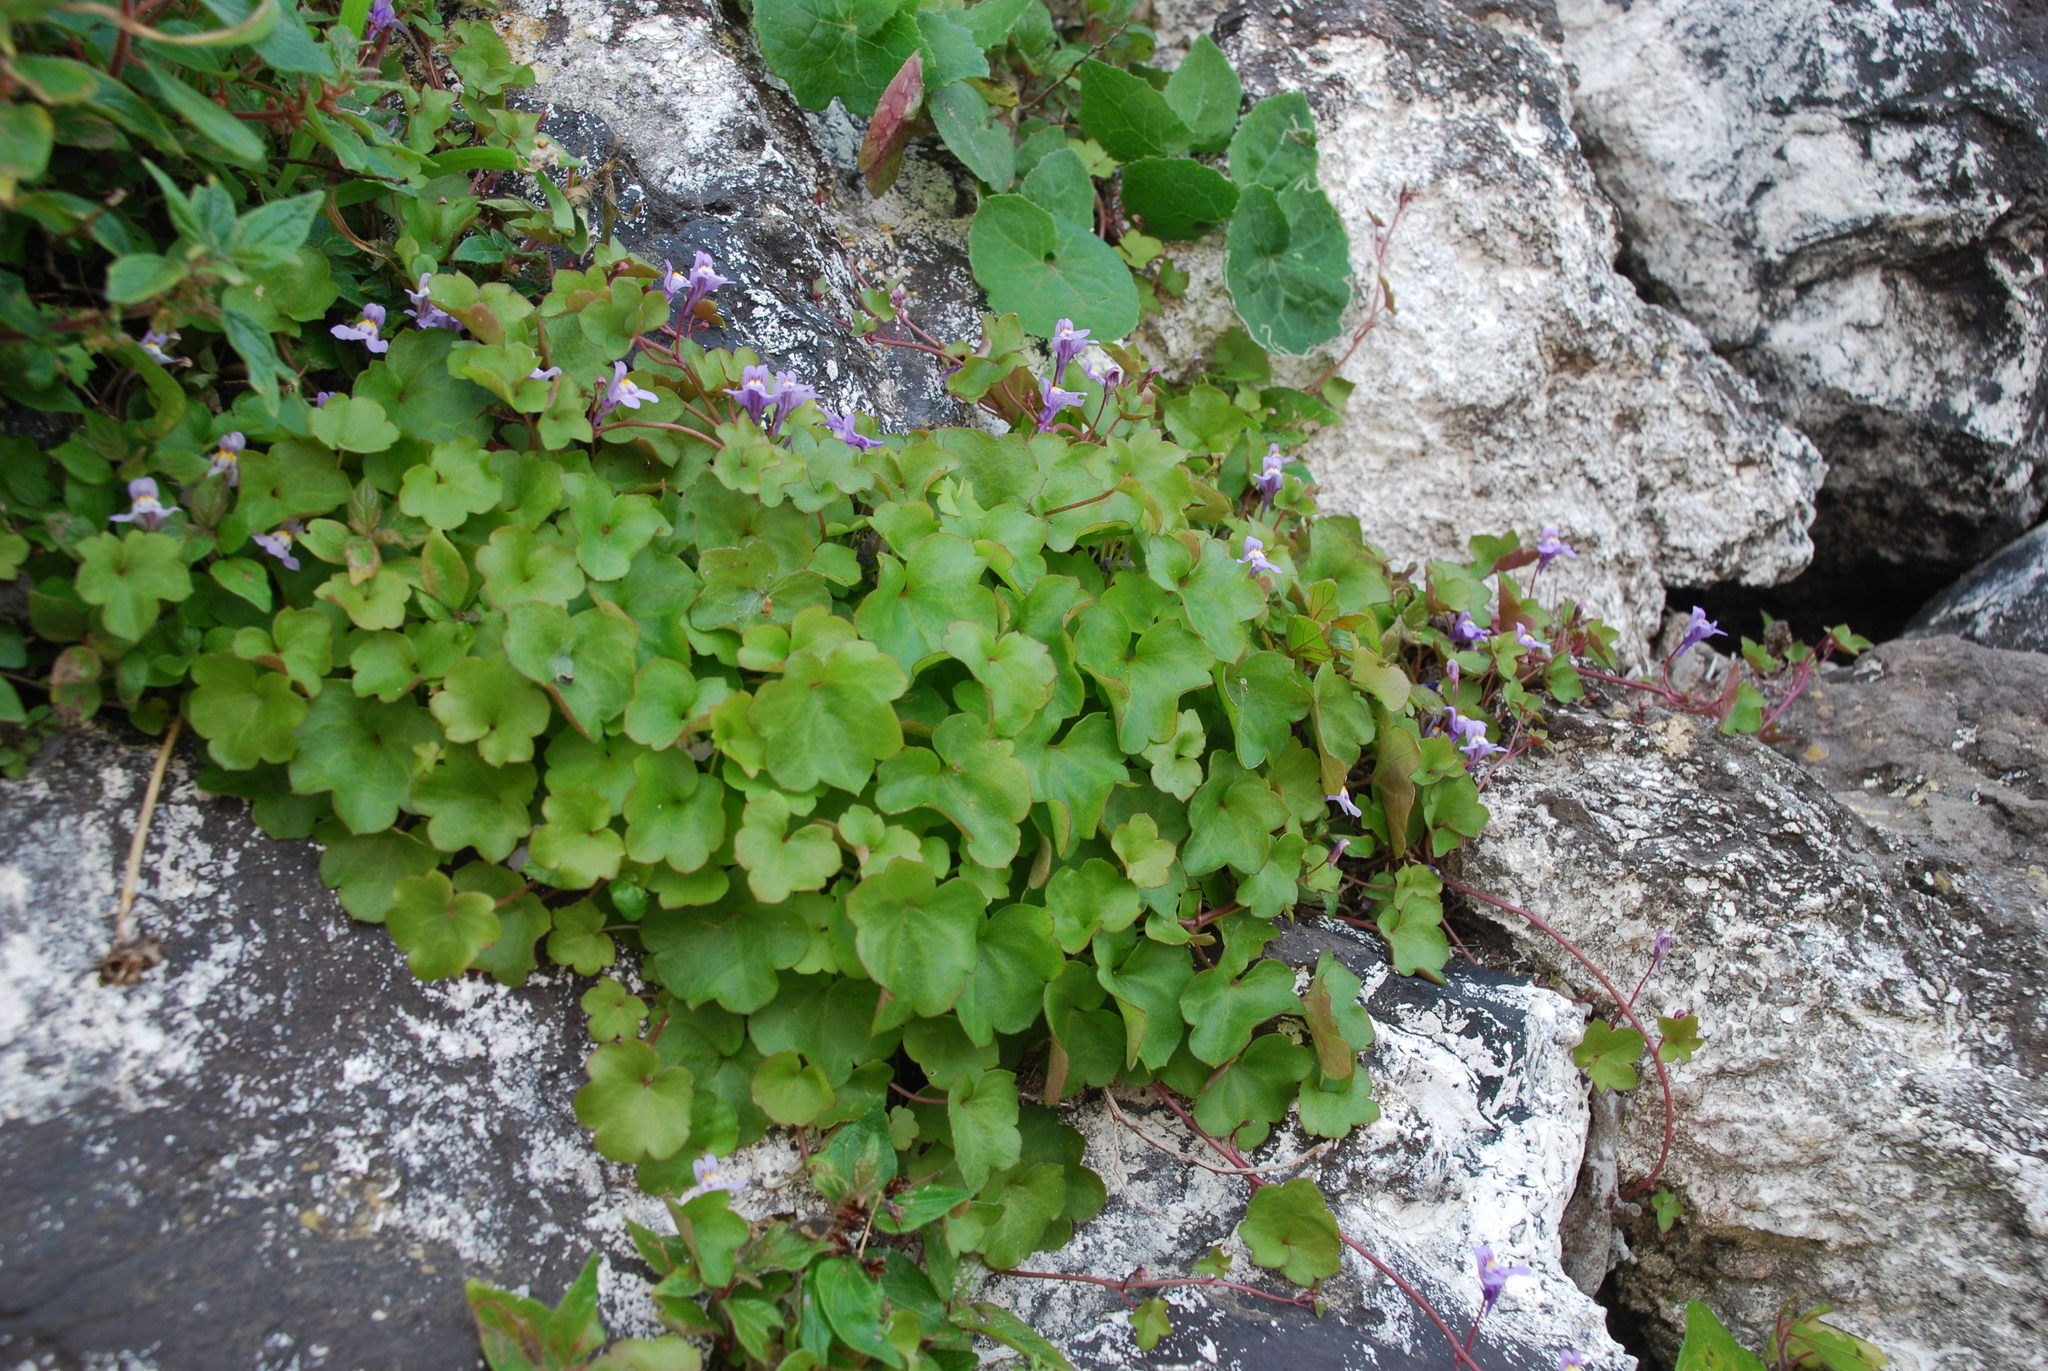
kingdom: Plantae
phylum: Tracheophyta
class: Magnoliopsida
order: Lamiales
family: Plantaginaceae
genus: Cymbalaria
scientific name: Cymbalaria muralis
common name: Ivy-leaved toadflax
